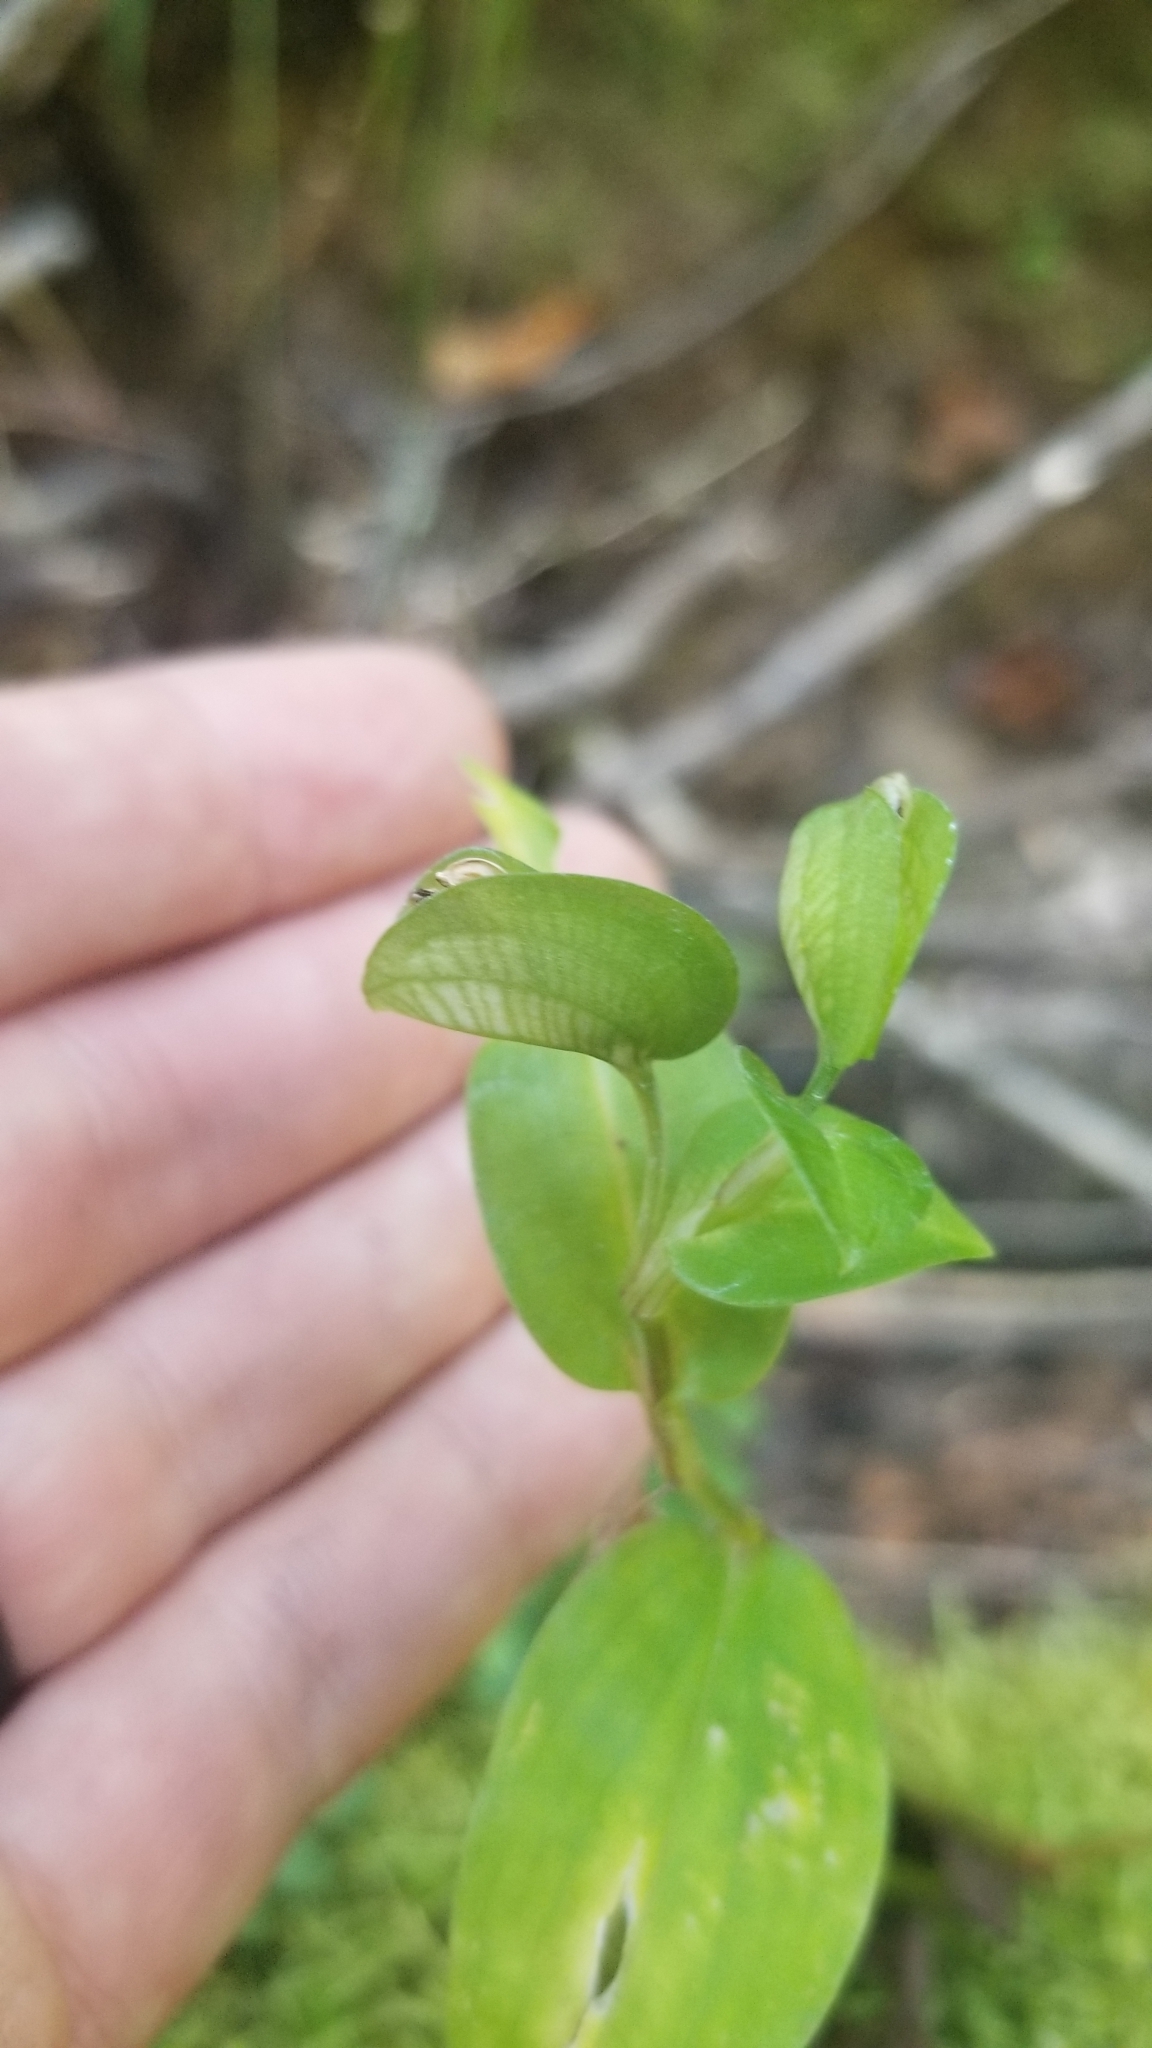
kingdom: Plantae
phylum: Tracheophyta
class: Liliopsida
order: Commelinales
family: Commelinaceae
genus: Commelina
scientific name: Commelina communis
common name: Asiatic dayflower
